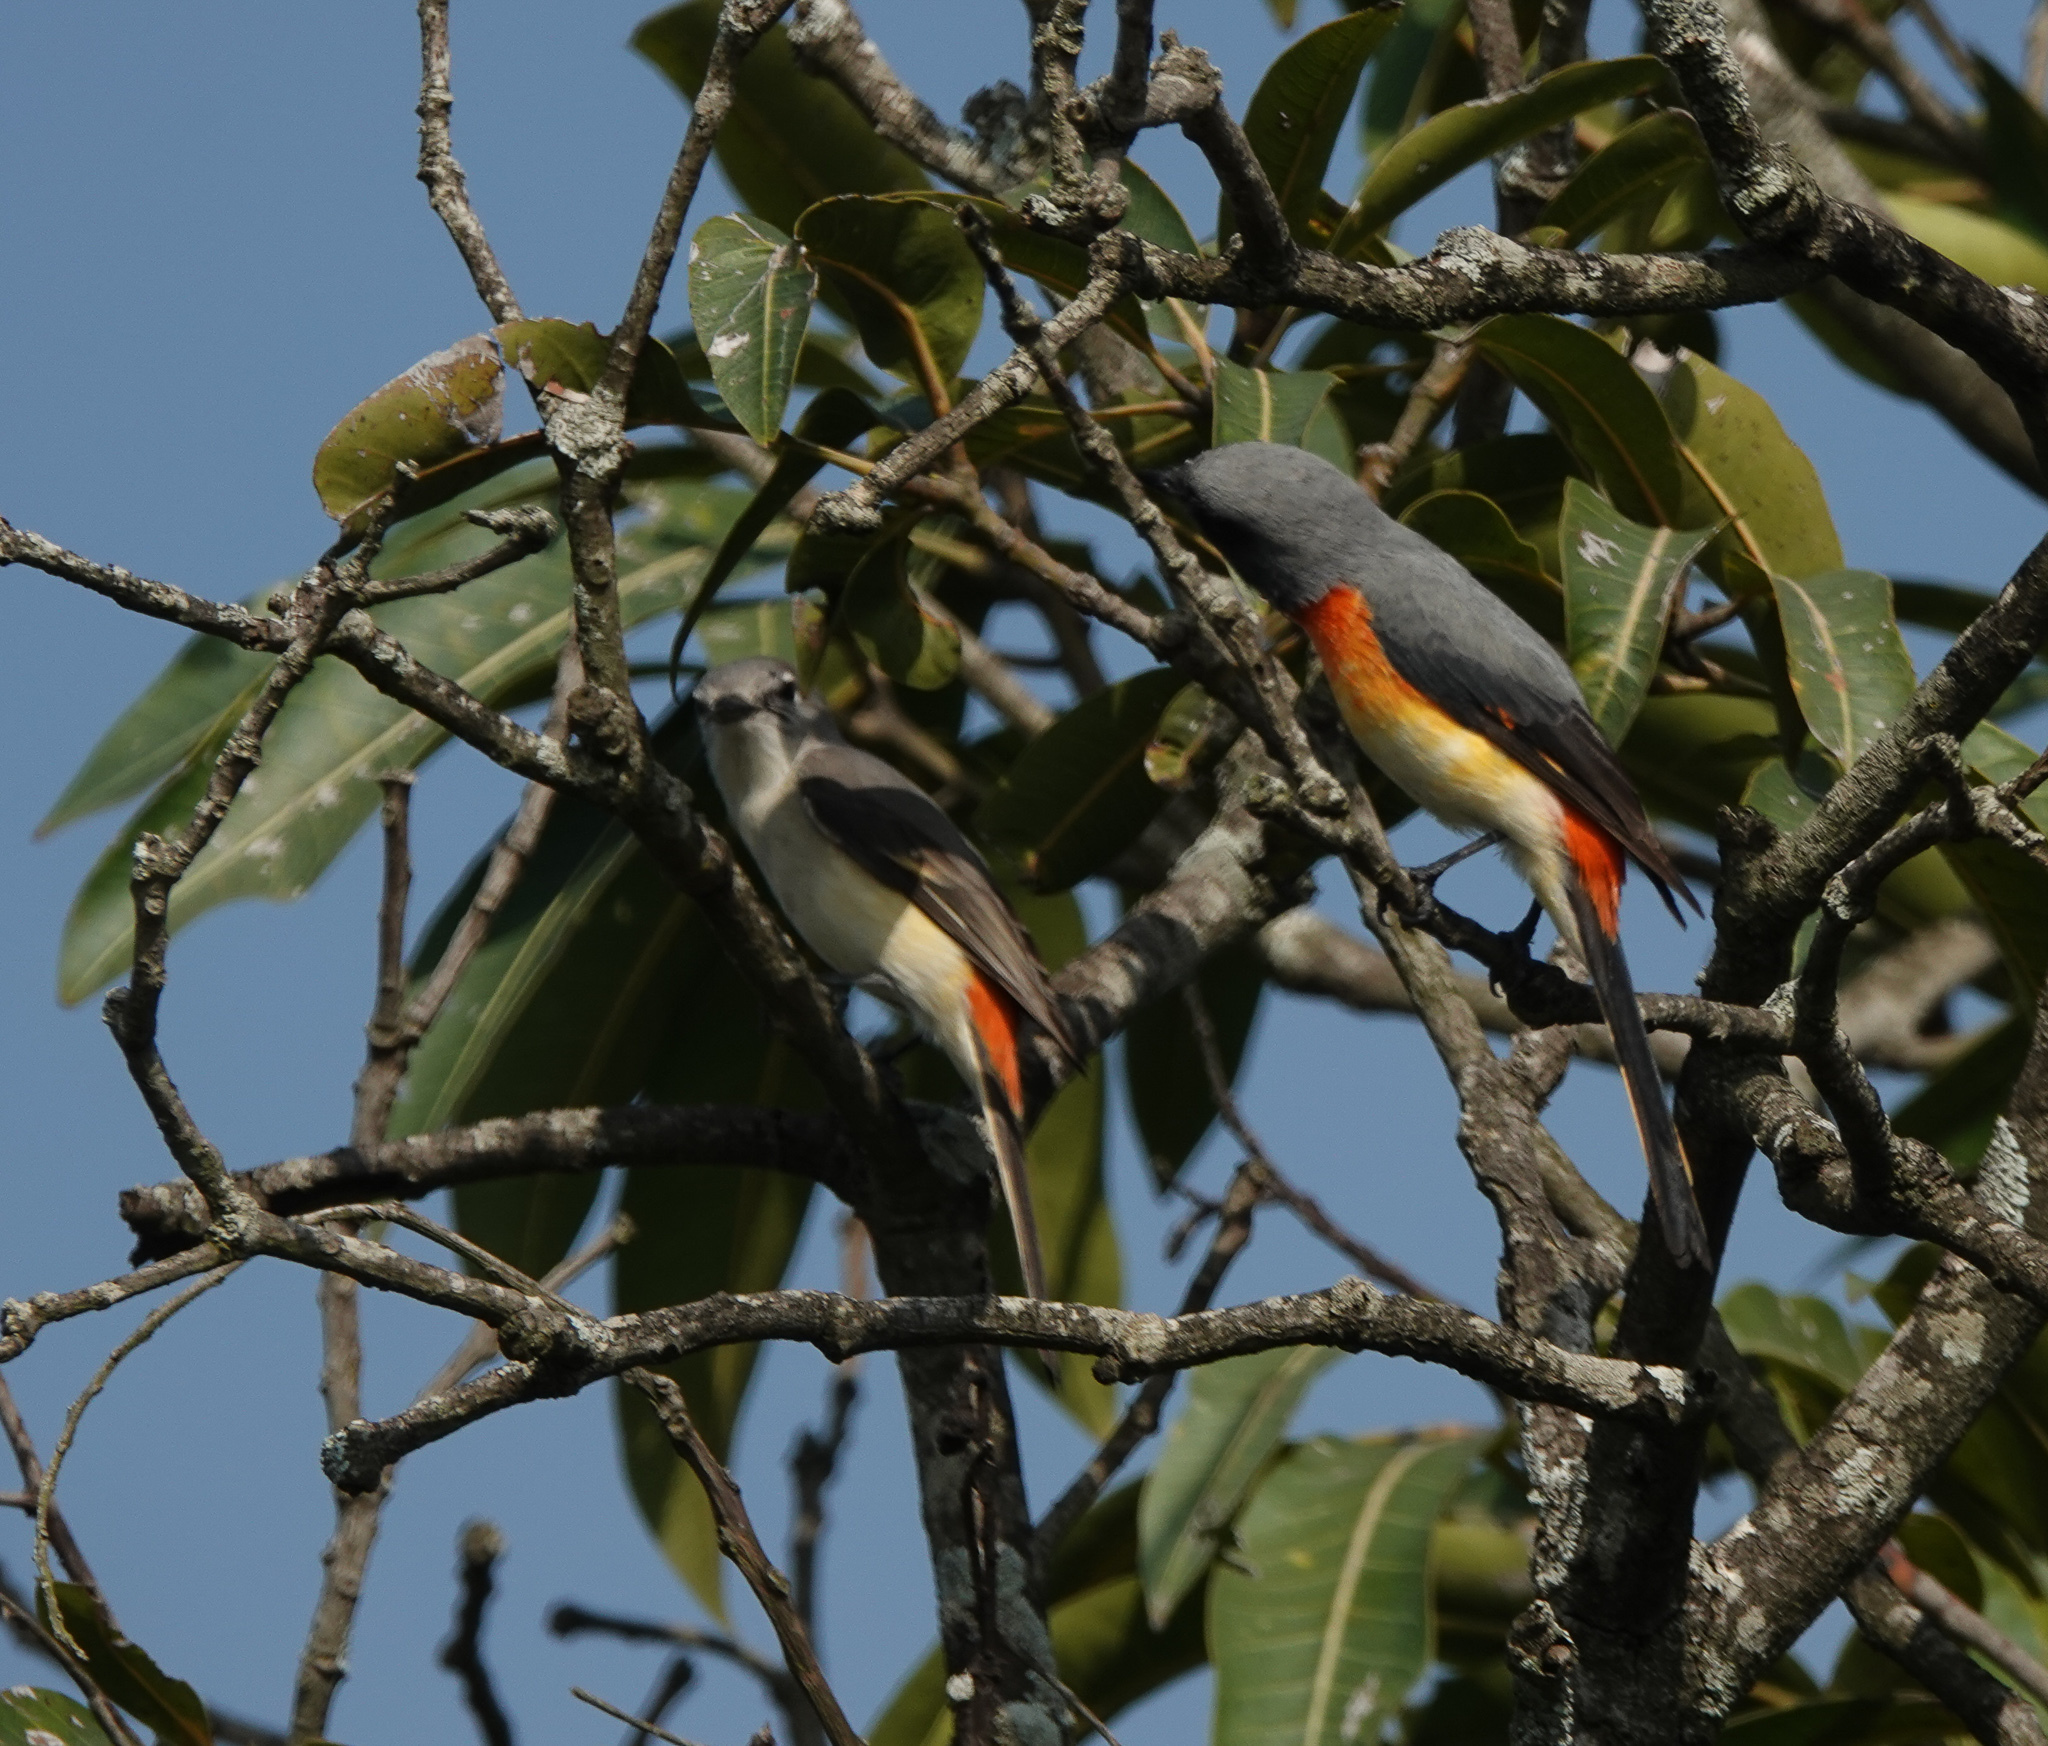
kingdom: Animalia
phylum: Chordata
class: Aves
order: Passeriformes
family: Campephagidae
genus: Pericrocotus
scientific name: Pericrocotus cinnamomeus
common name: Small minivet
